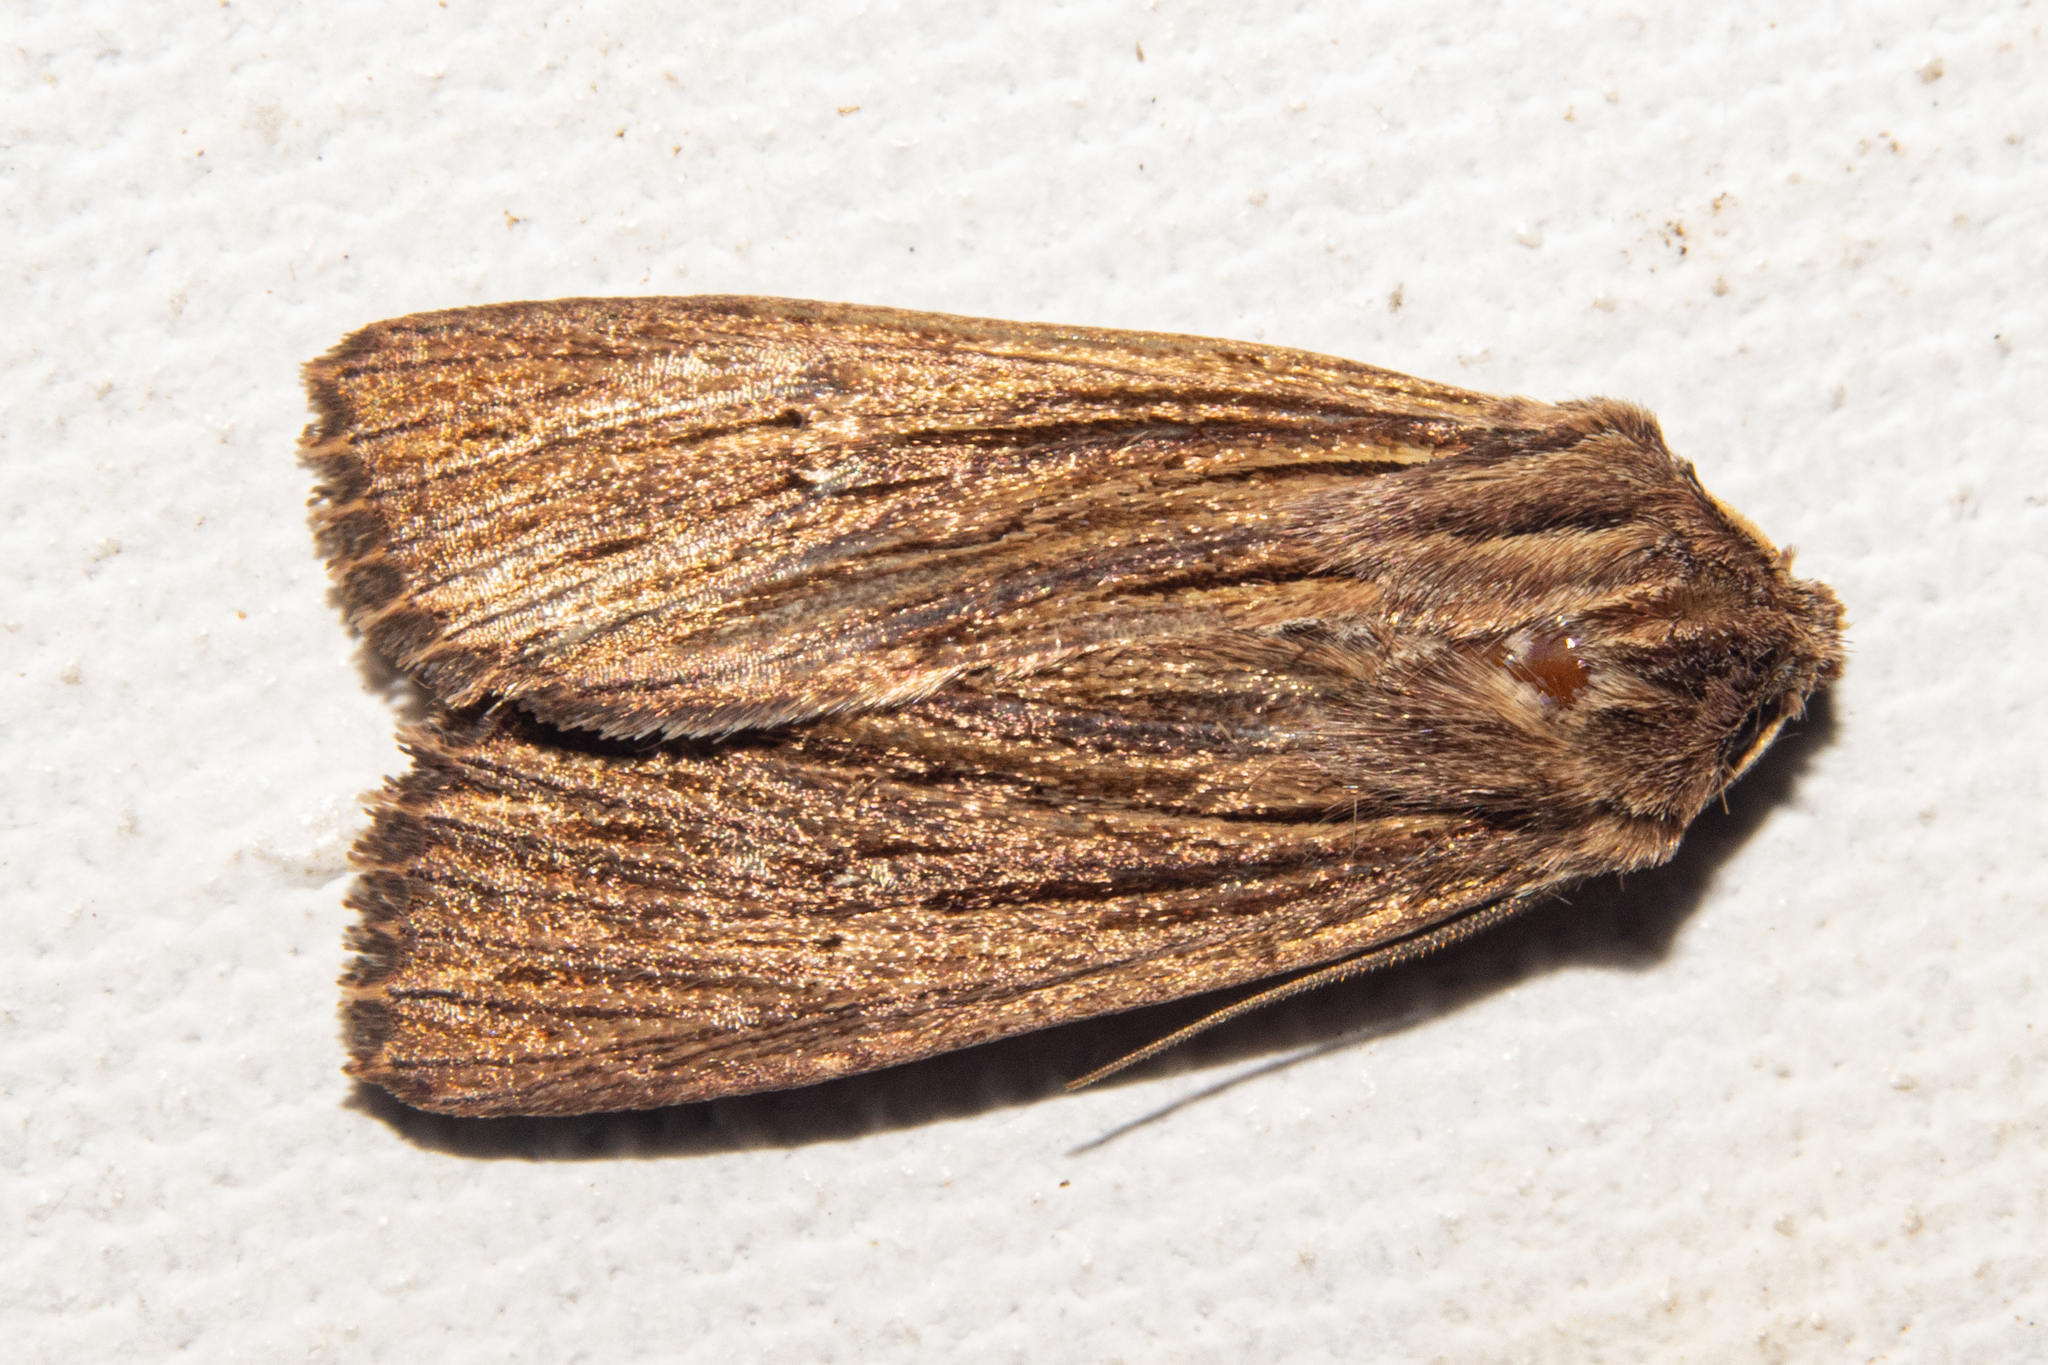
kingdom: Animalia
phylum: Arthropoda
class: Insecta
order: Lepidoptera
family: Noctuidae
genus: Ichneutica
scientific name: Ichneutica
